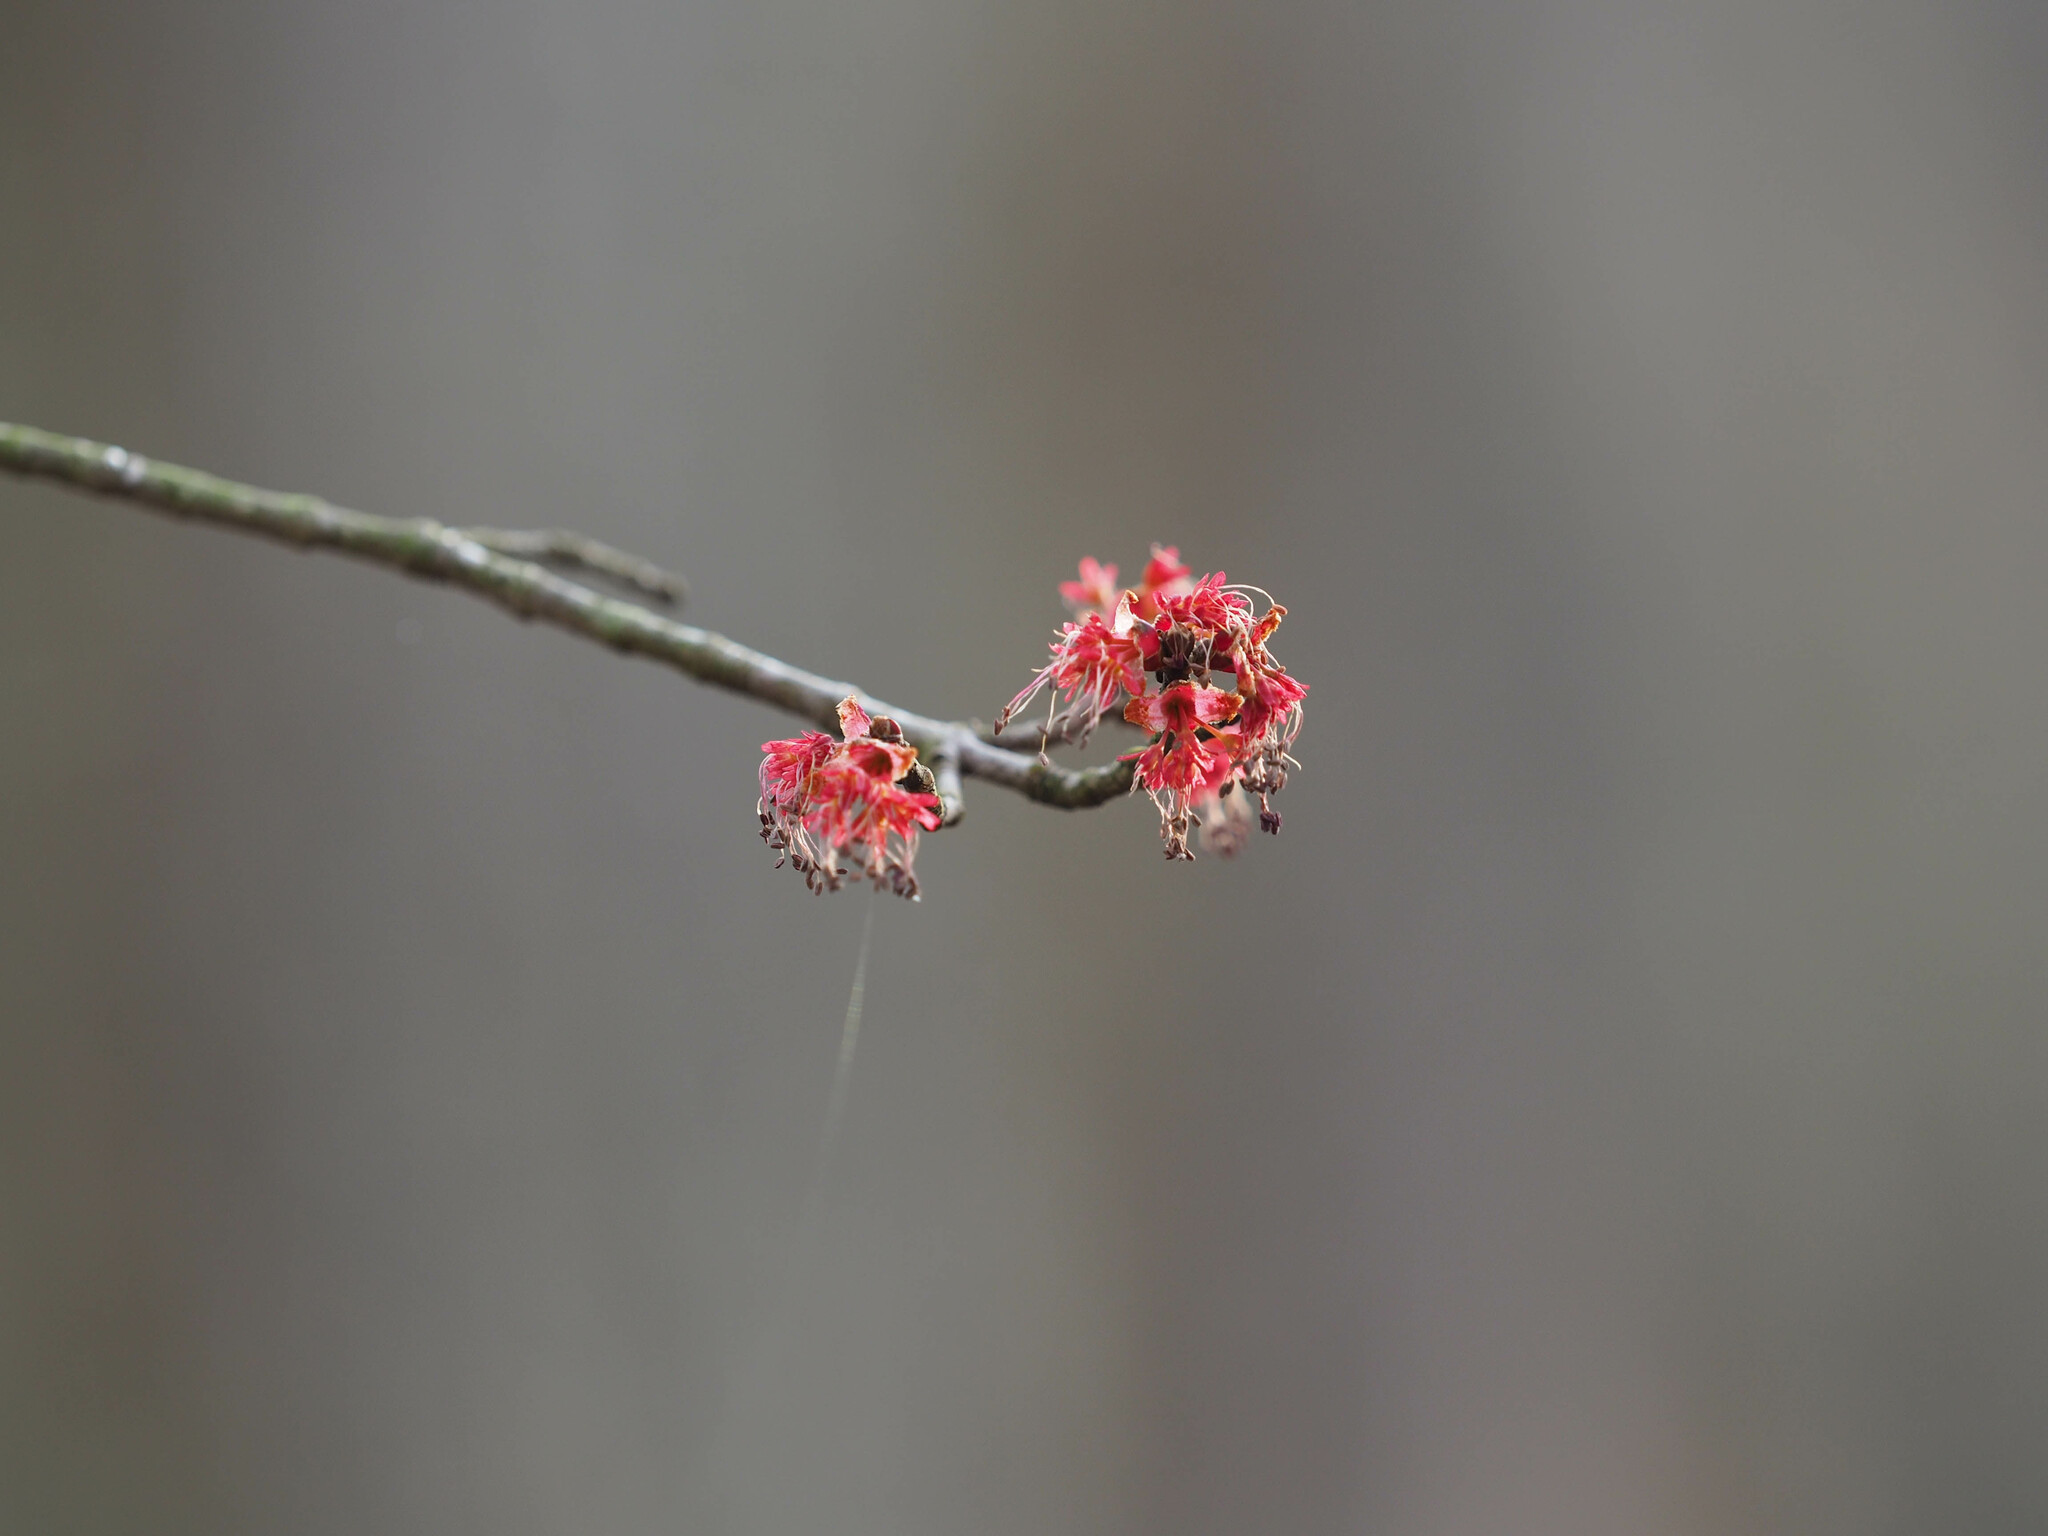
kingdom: Plantae
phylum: Tracheophyta
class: Magnoliopsida
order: Sapindales
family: Sapindaceae
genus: Acer
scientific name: Acer rubrum
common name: Red maple
